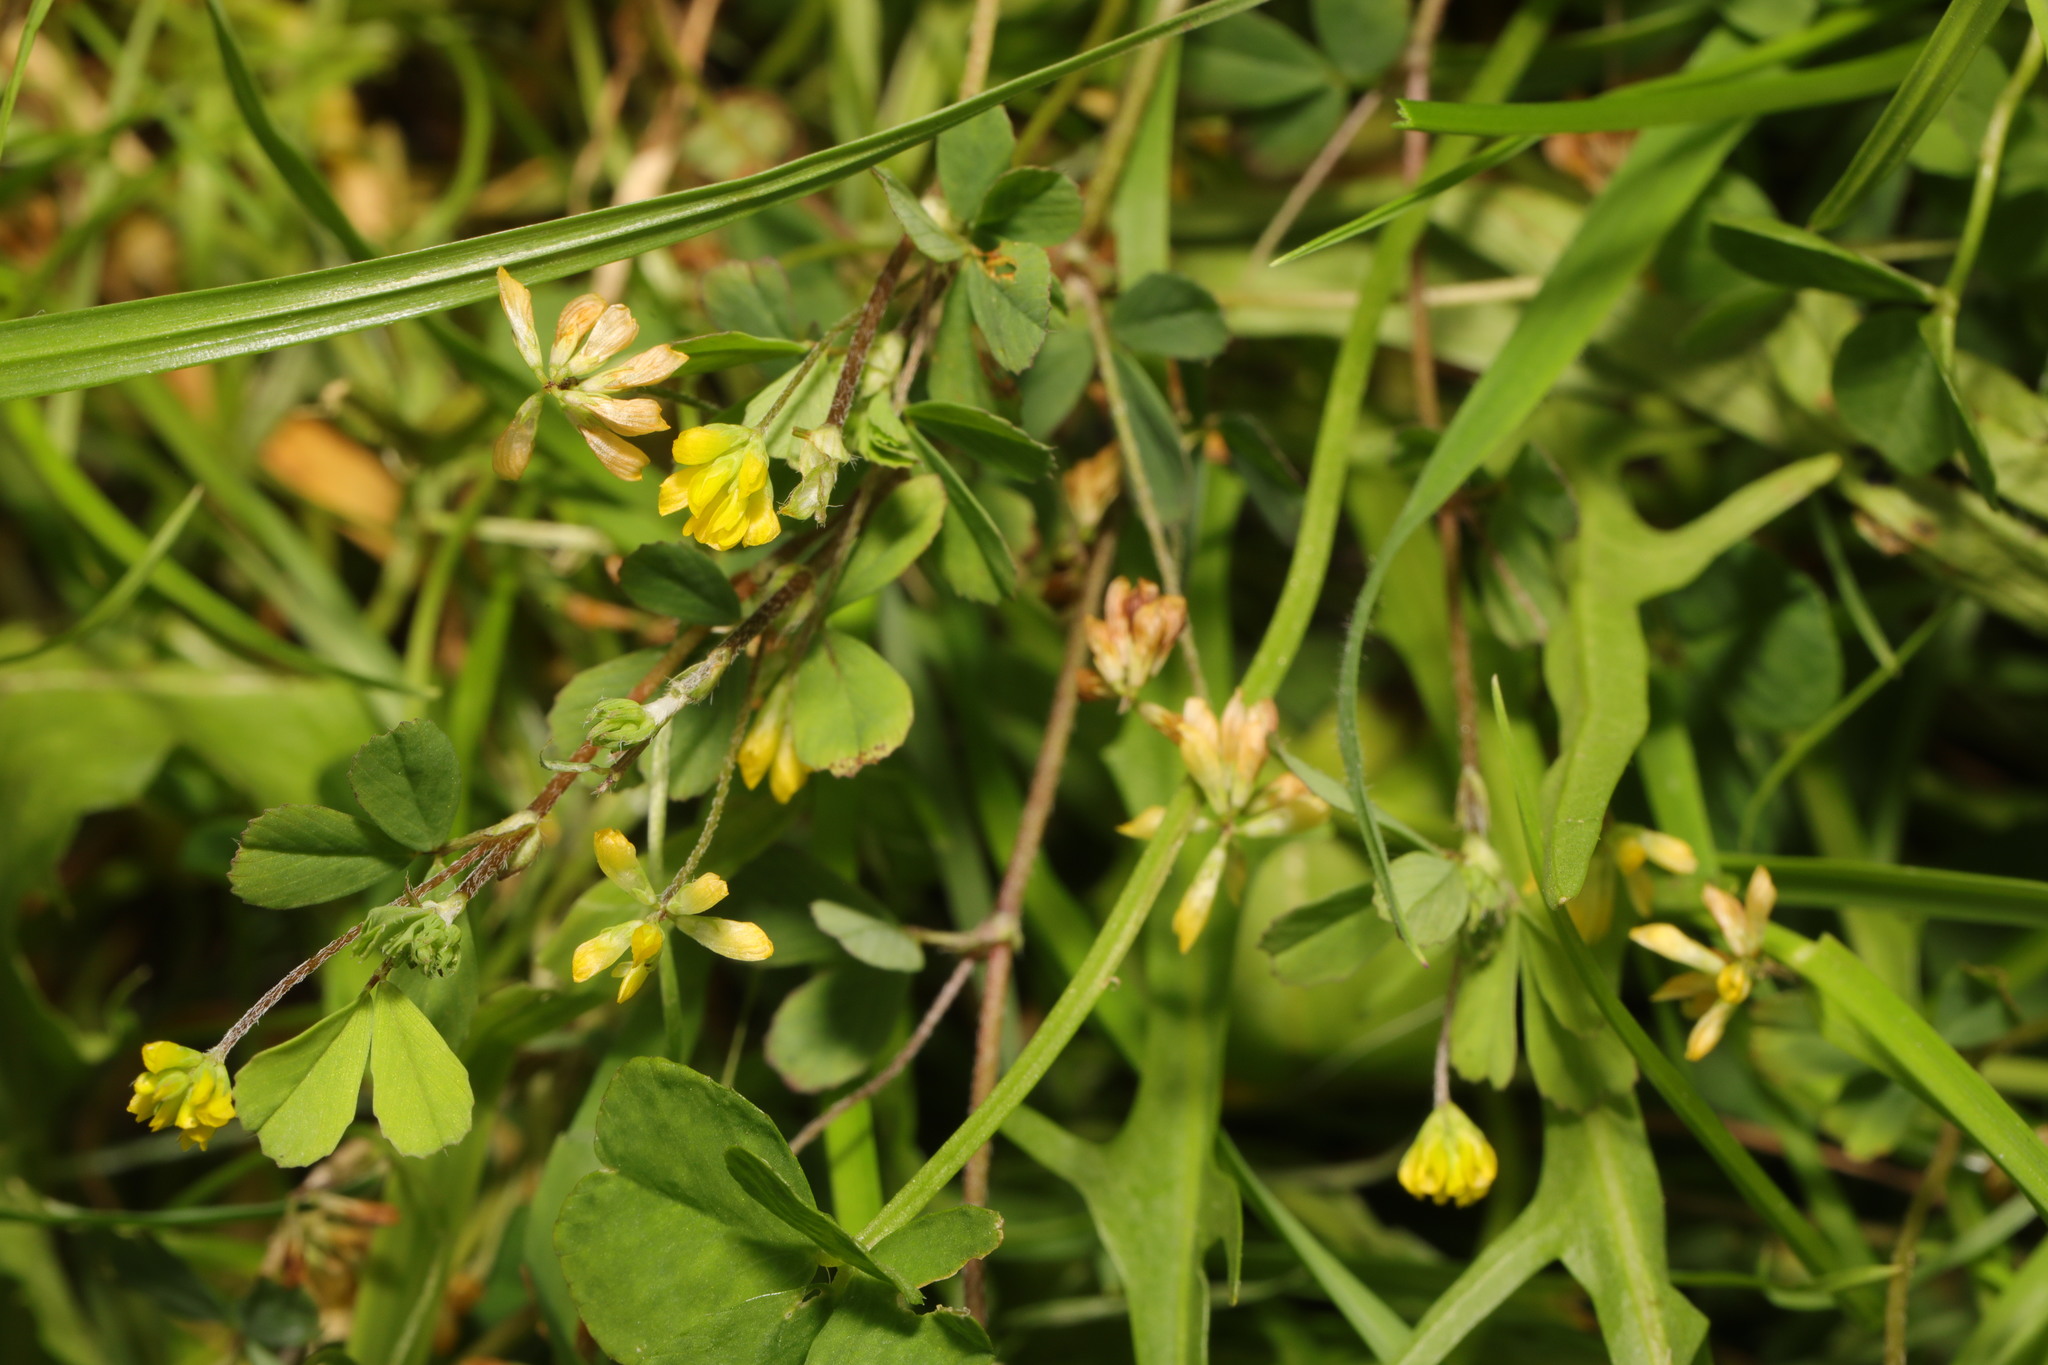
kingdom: Plantae
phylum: Tracheophyta
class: Magnoliopsida
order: Fabales
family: Fabaceae
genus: Trifolium
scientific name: Trifolium dubium
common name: Suckling clover
